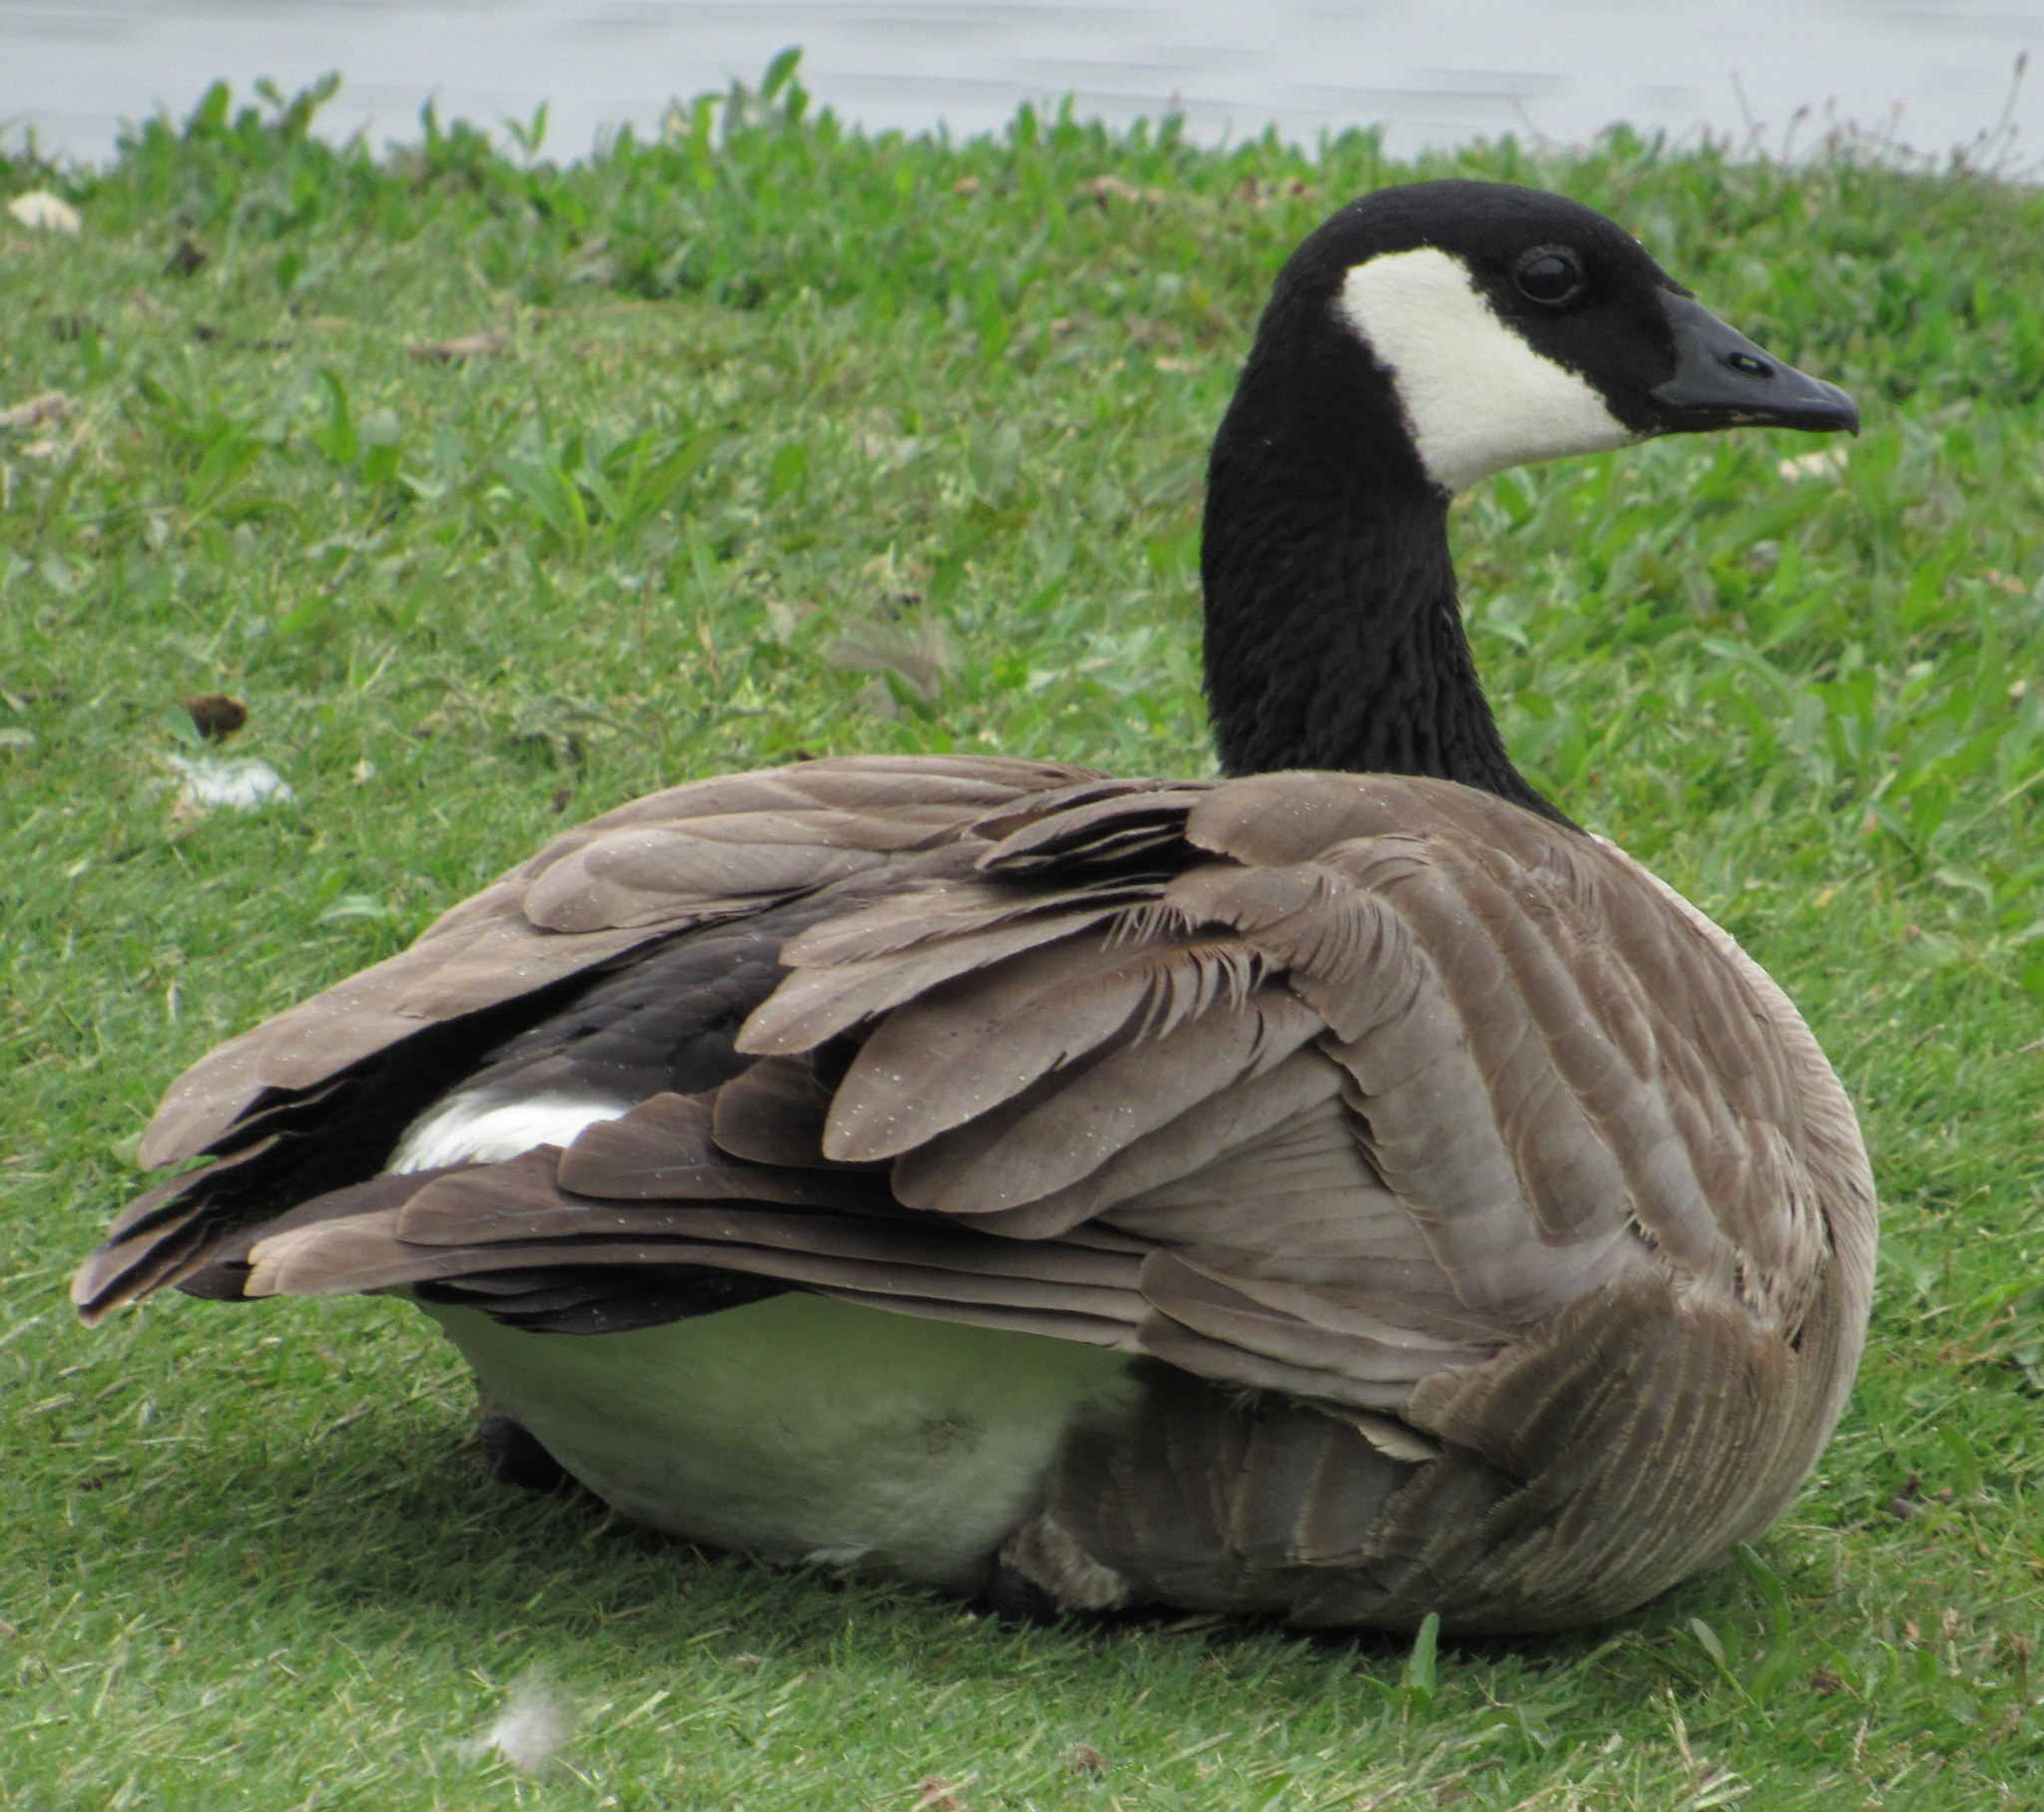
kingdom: Animalia
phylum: Chordata
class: Aves
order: Anseriformes
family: Anatidae
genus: Branta
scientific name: Branta canadensis
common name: Canada goose
